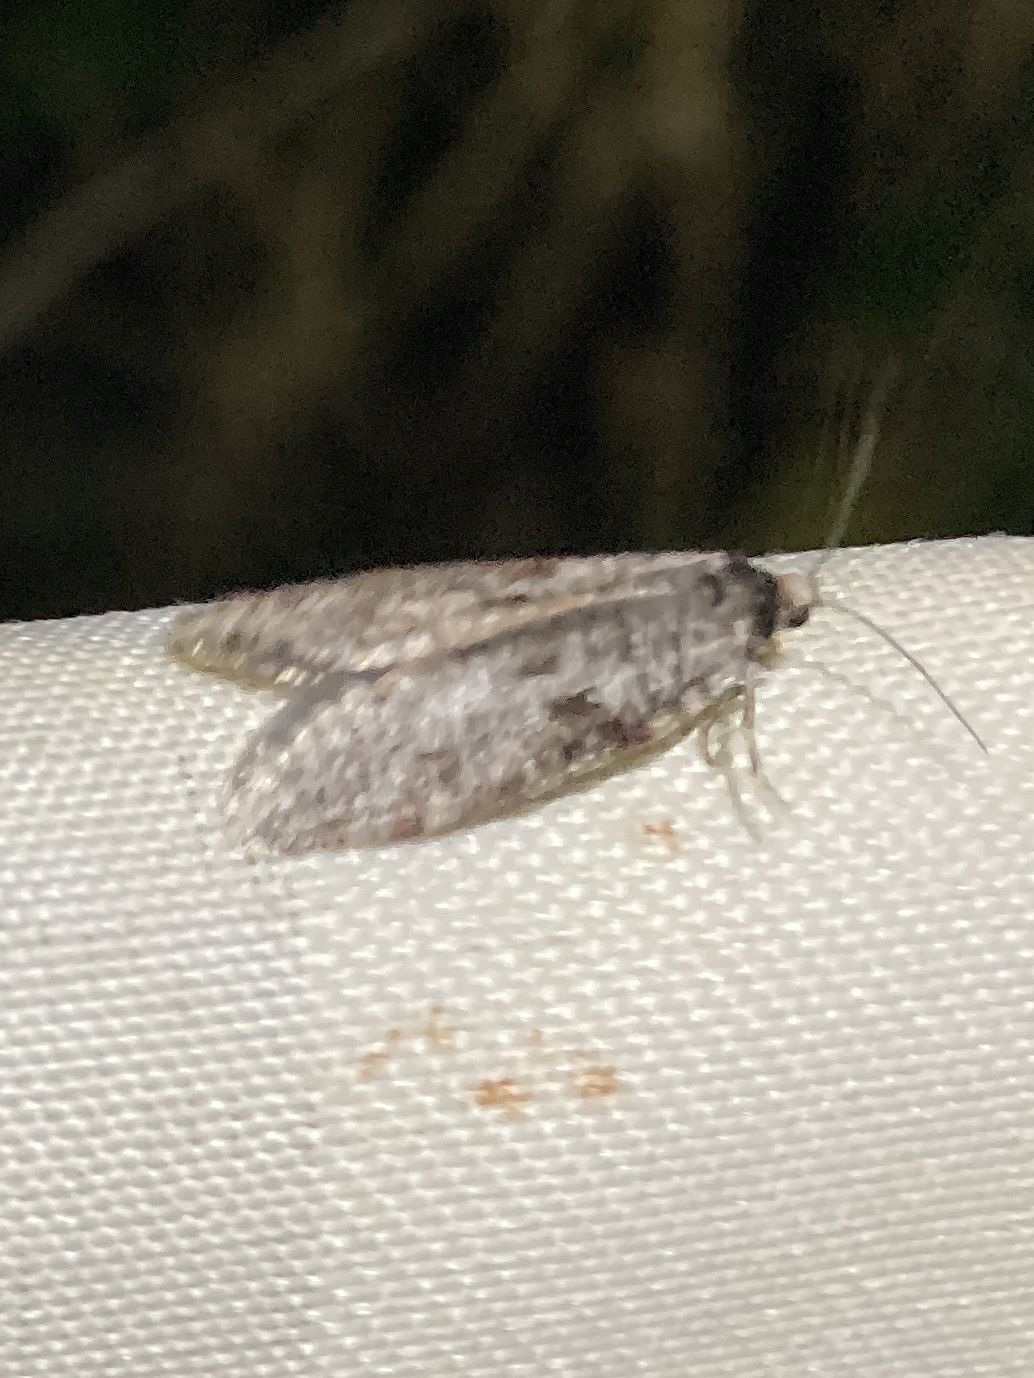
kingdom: Animalia
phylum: Arthropoda
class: Insecta
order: Lepidoptera
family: Psychidae
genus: Lepidoscia
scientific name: Lepidoscia protorna
